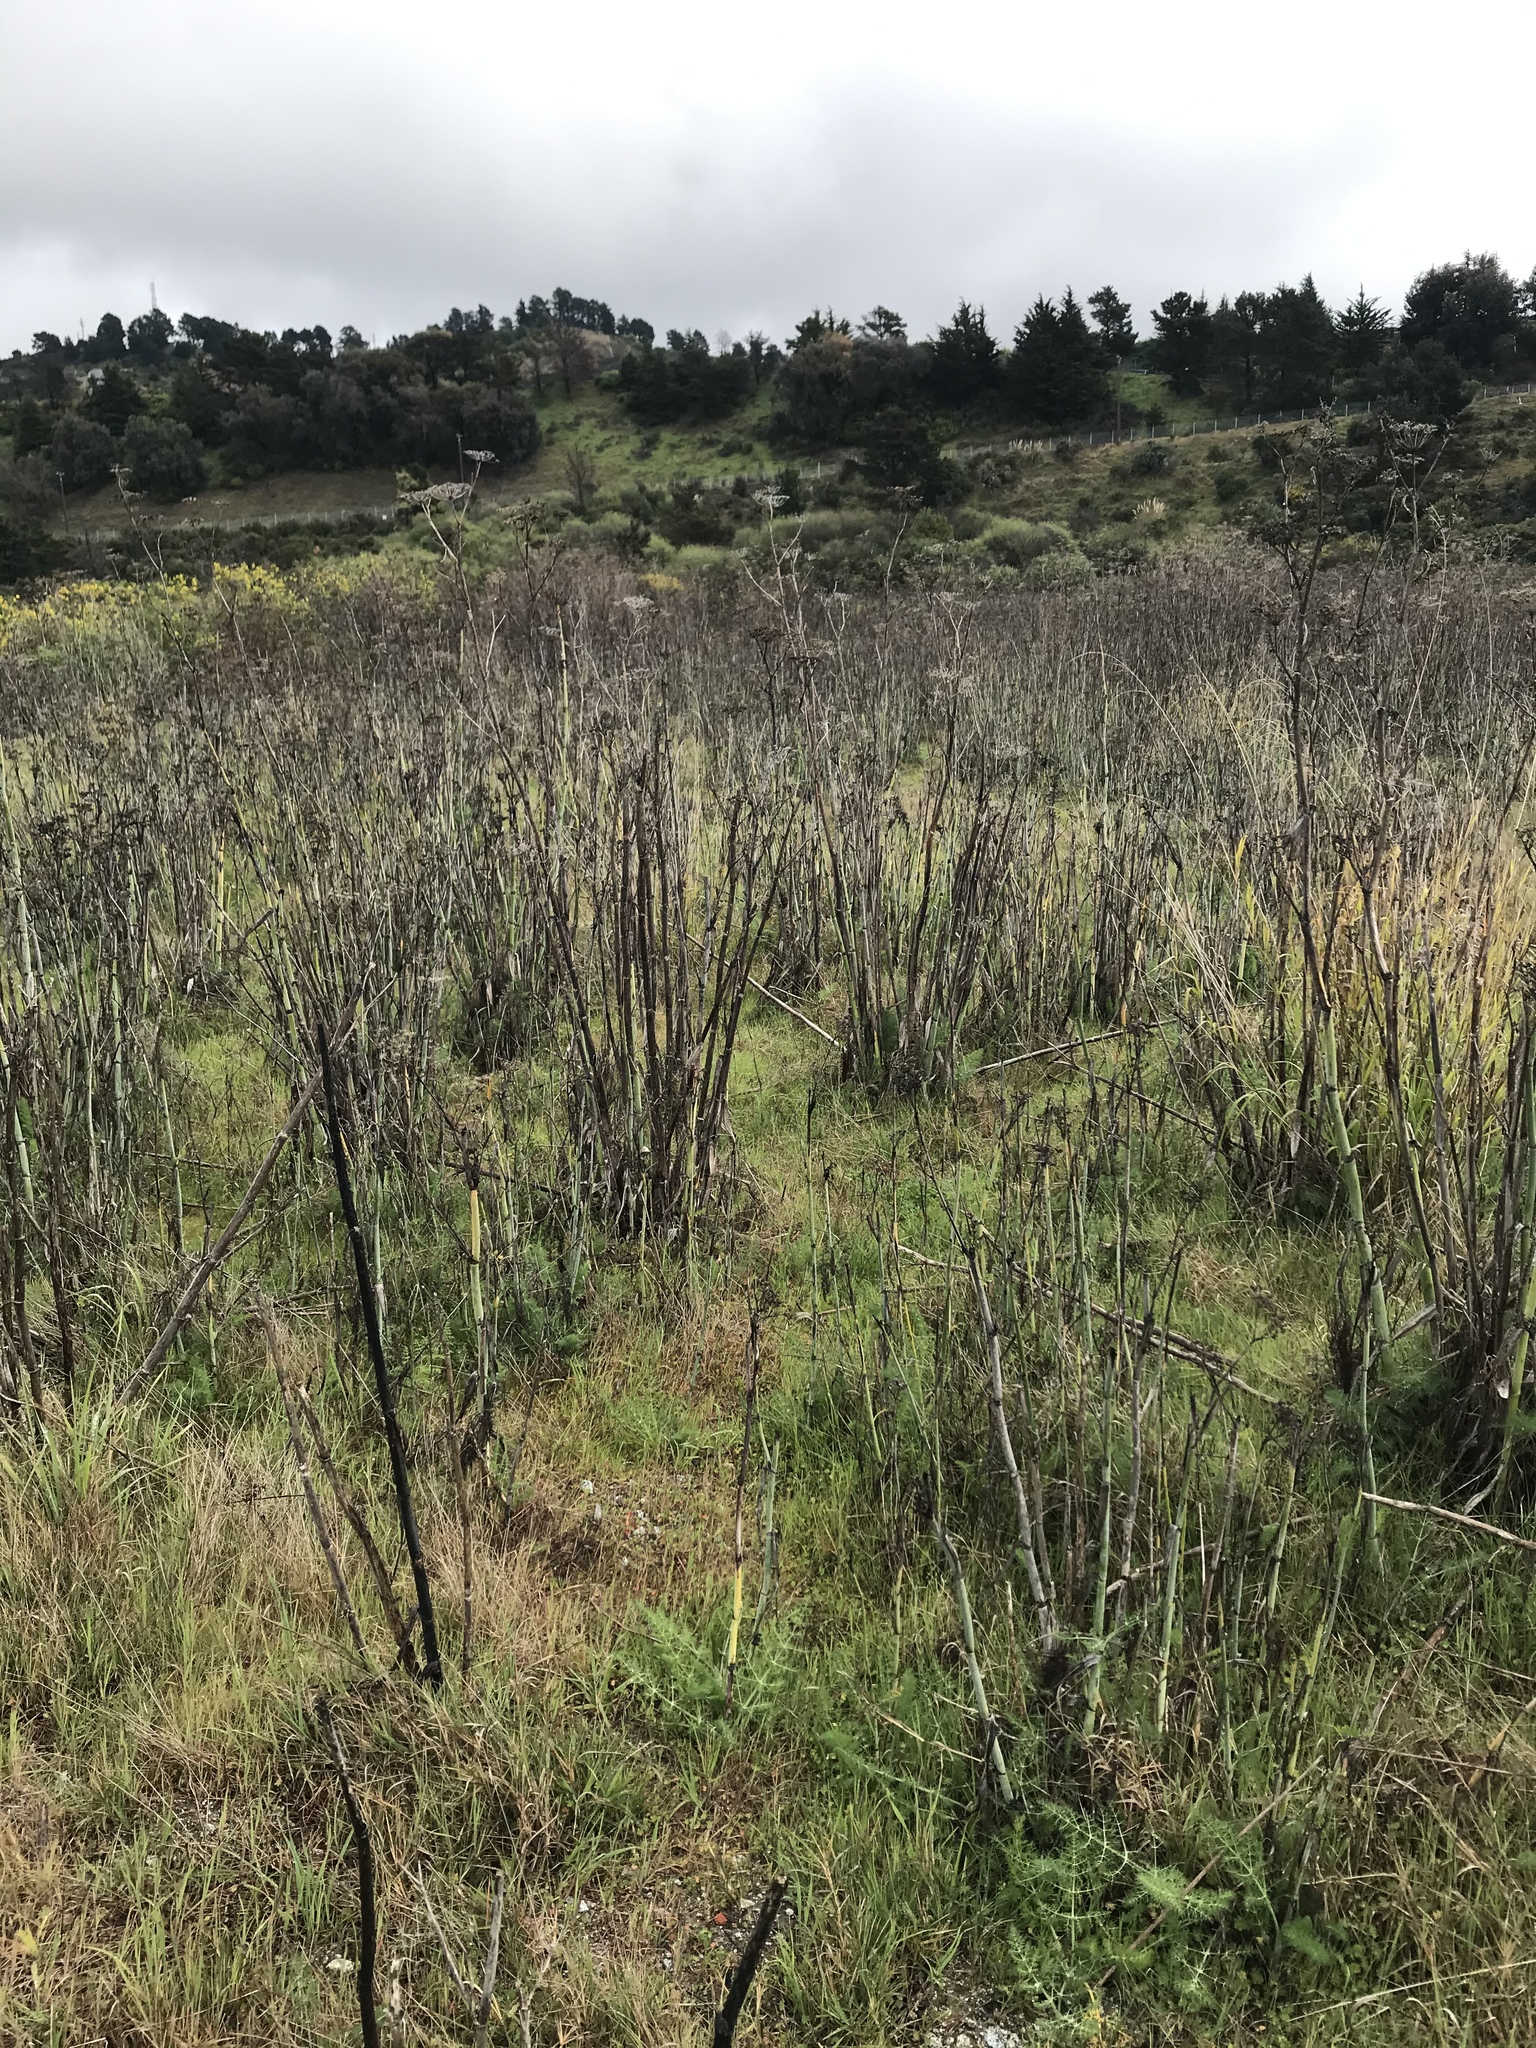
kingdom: Plantae
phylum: Tracheophyta
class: Magnoliopsida
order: Apiales
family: Apiaceae
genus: Foeniculum
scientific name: Foeniculum vulgare
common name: Fennel
